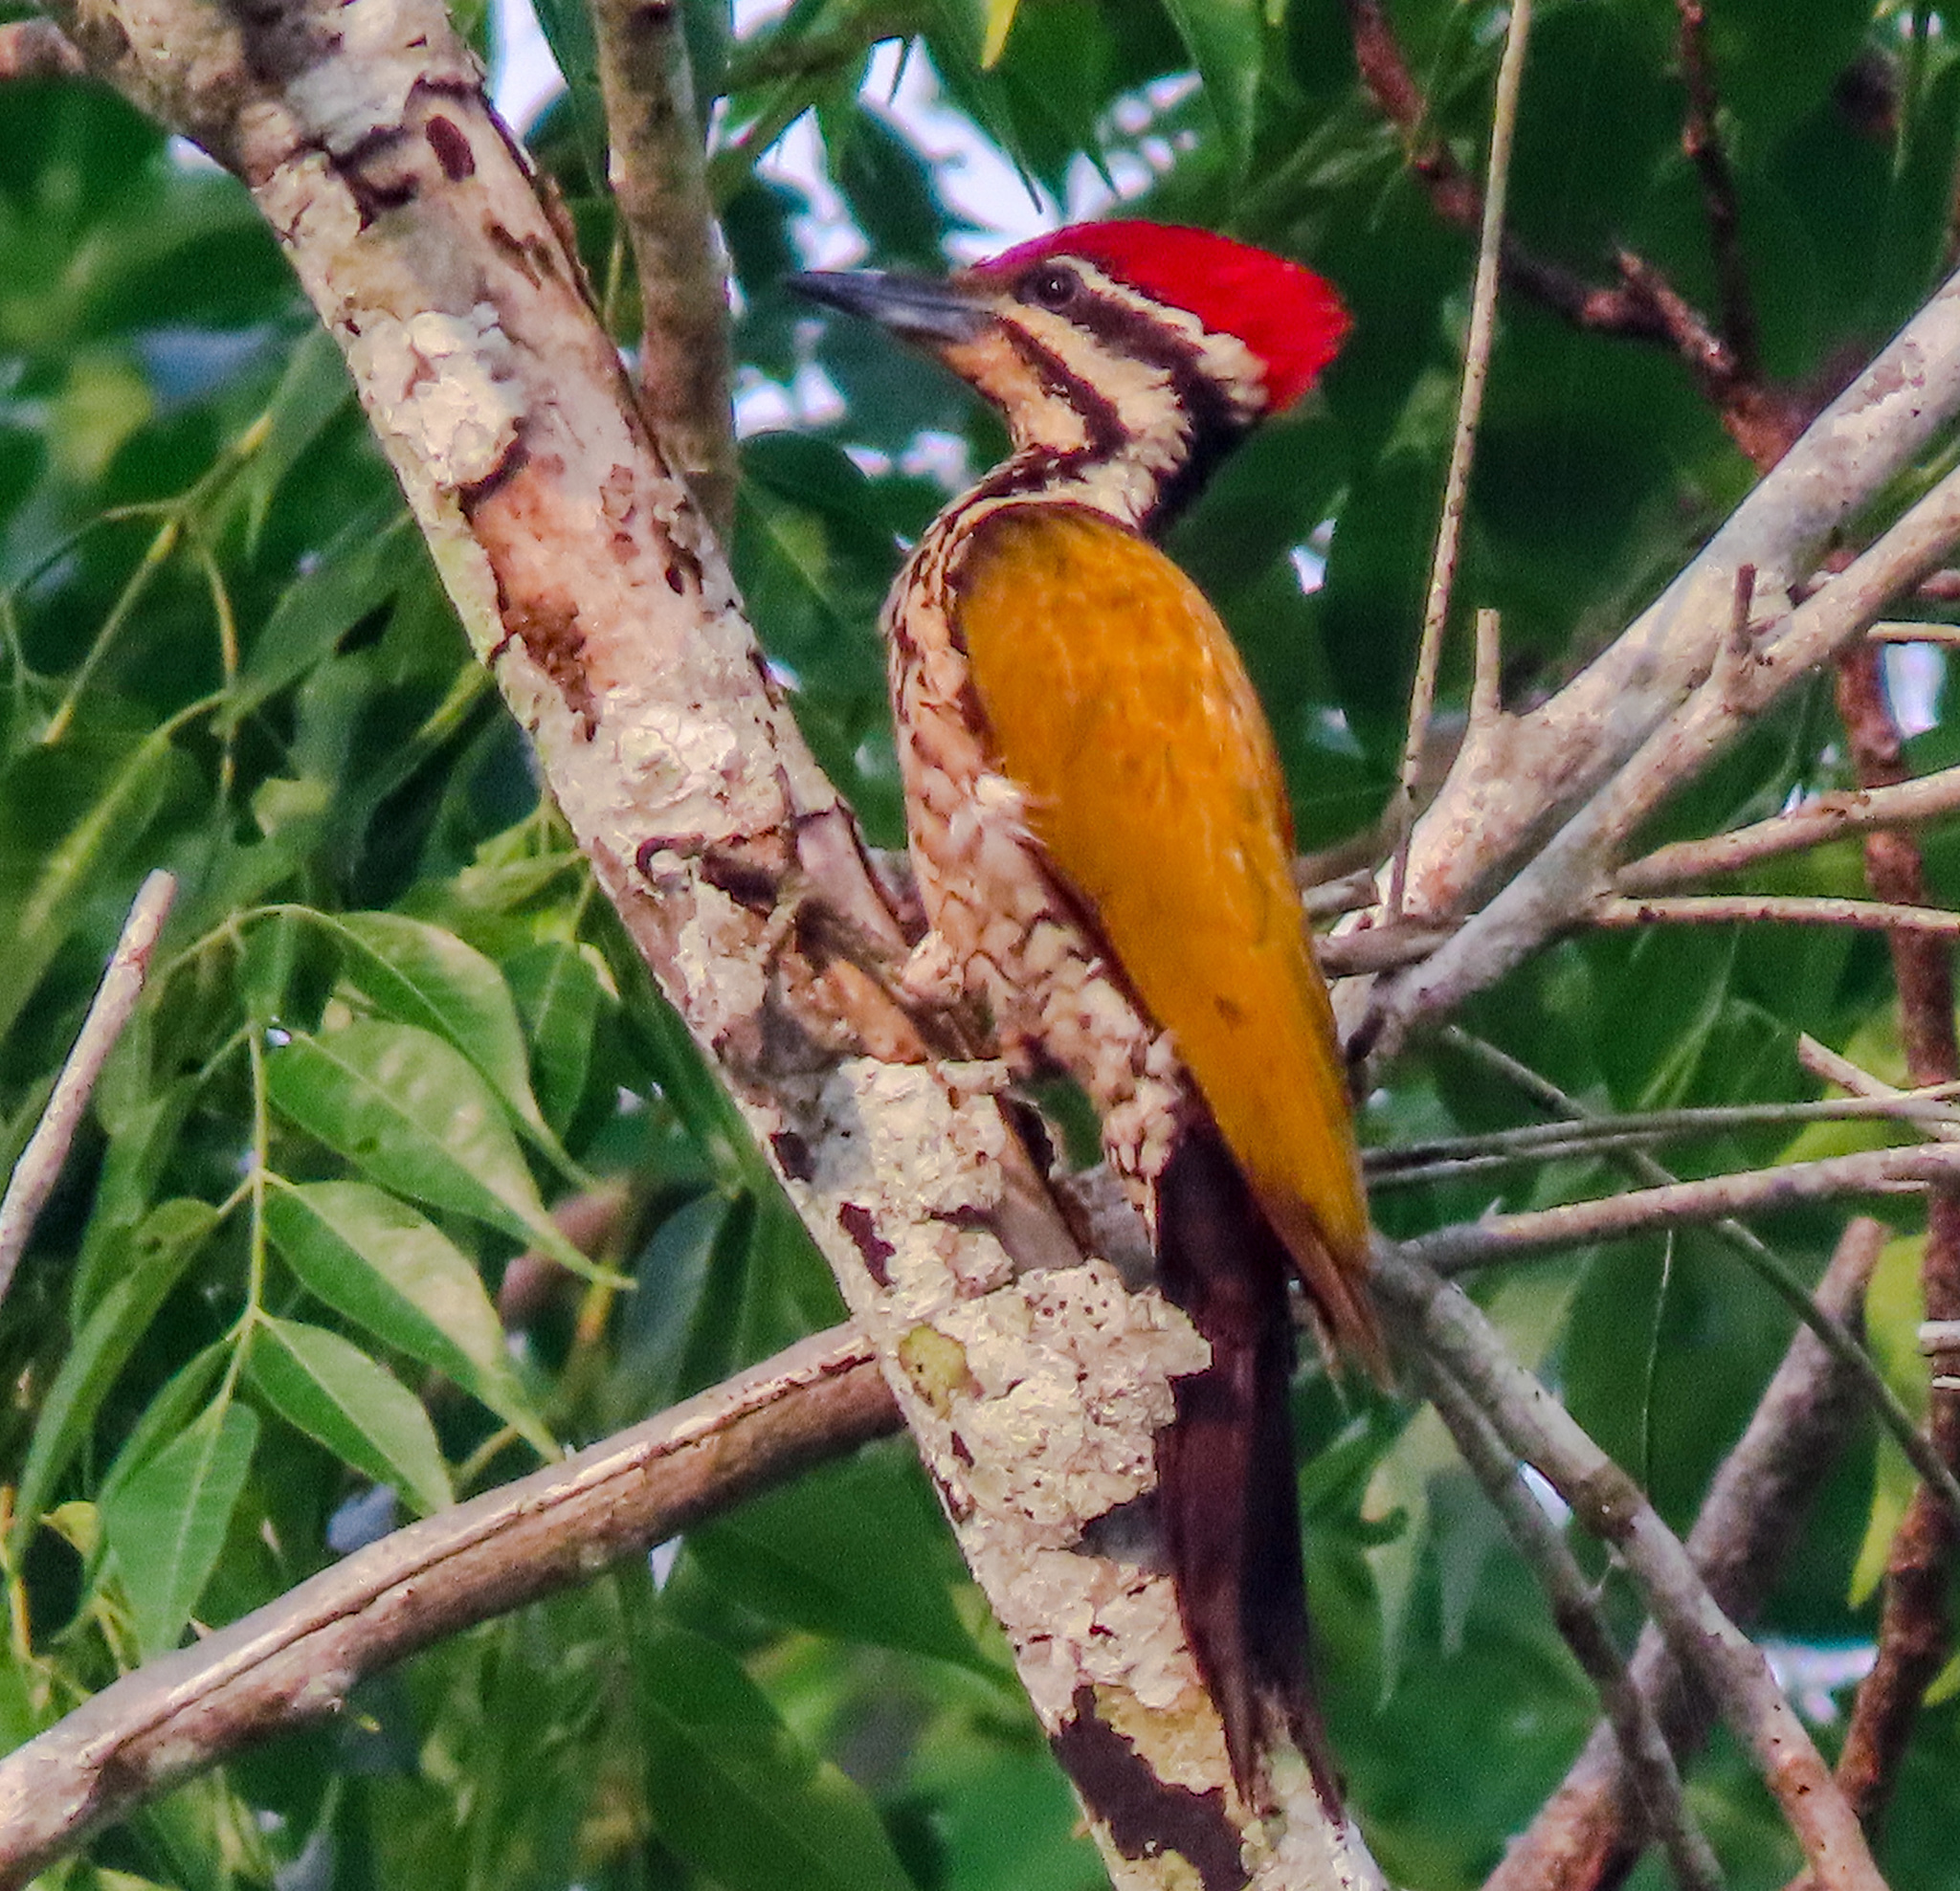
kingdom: Animalia
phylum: Chordata
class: Aves
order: Piciformes
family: Picidae
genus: Dinopium
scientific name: Dinopium javanense
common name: Common flameback
